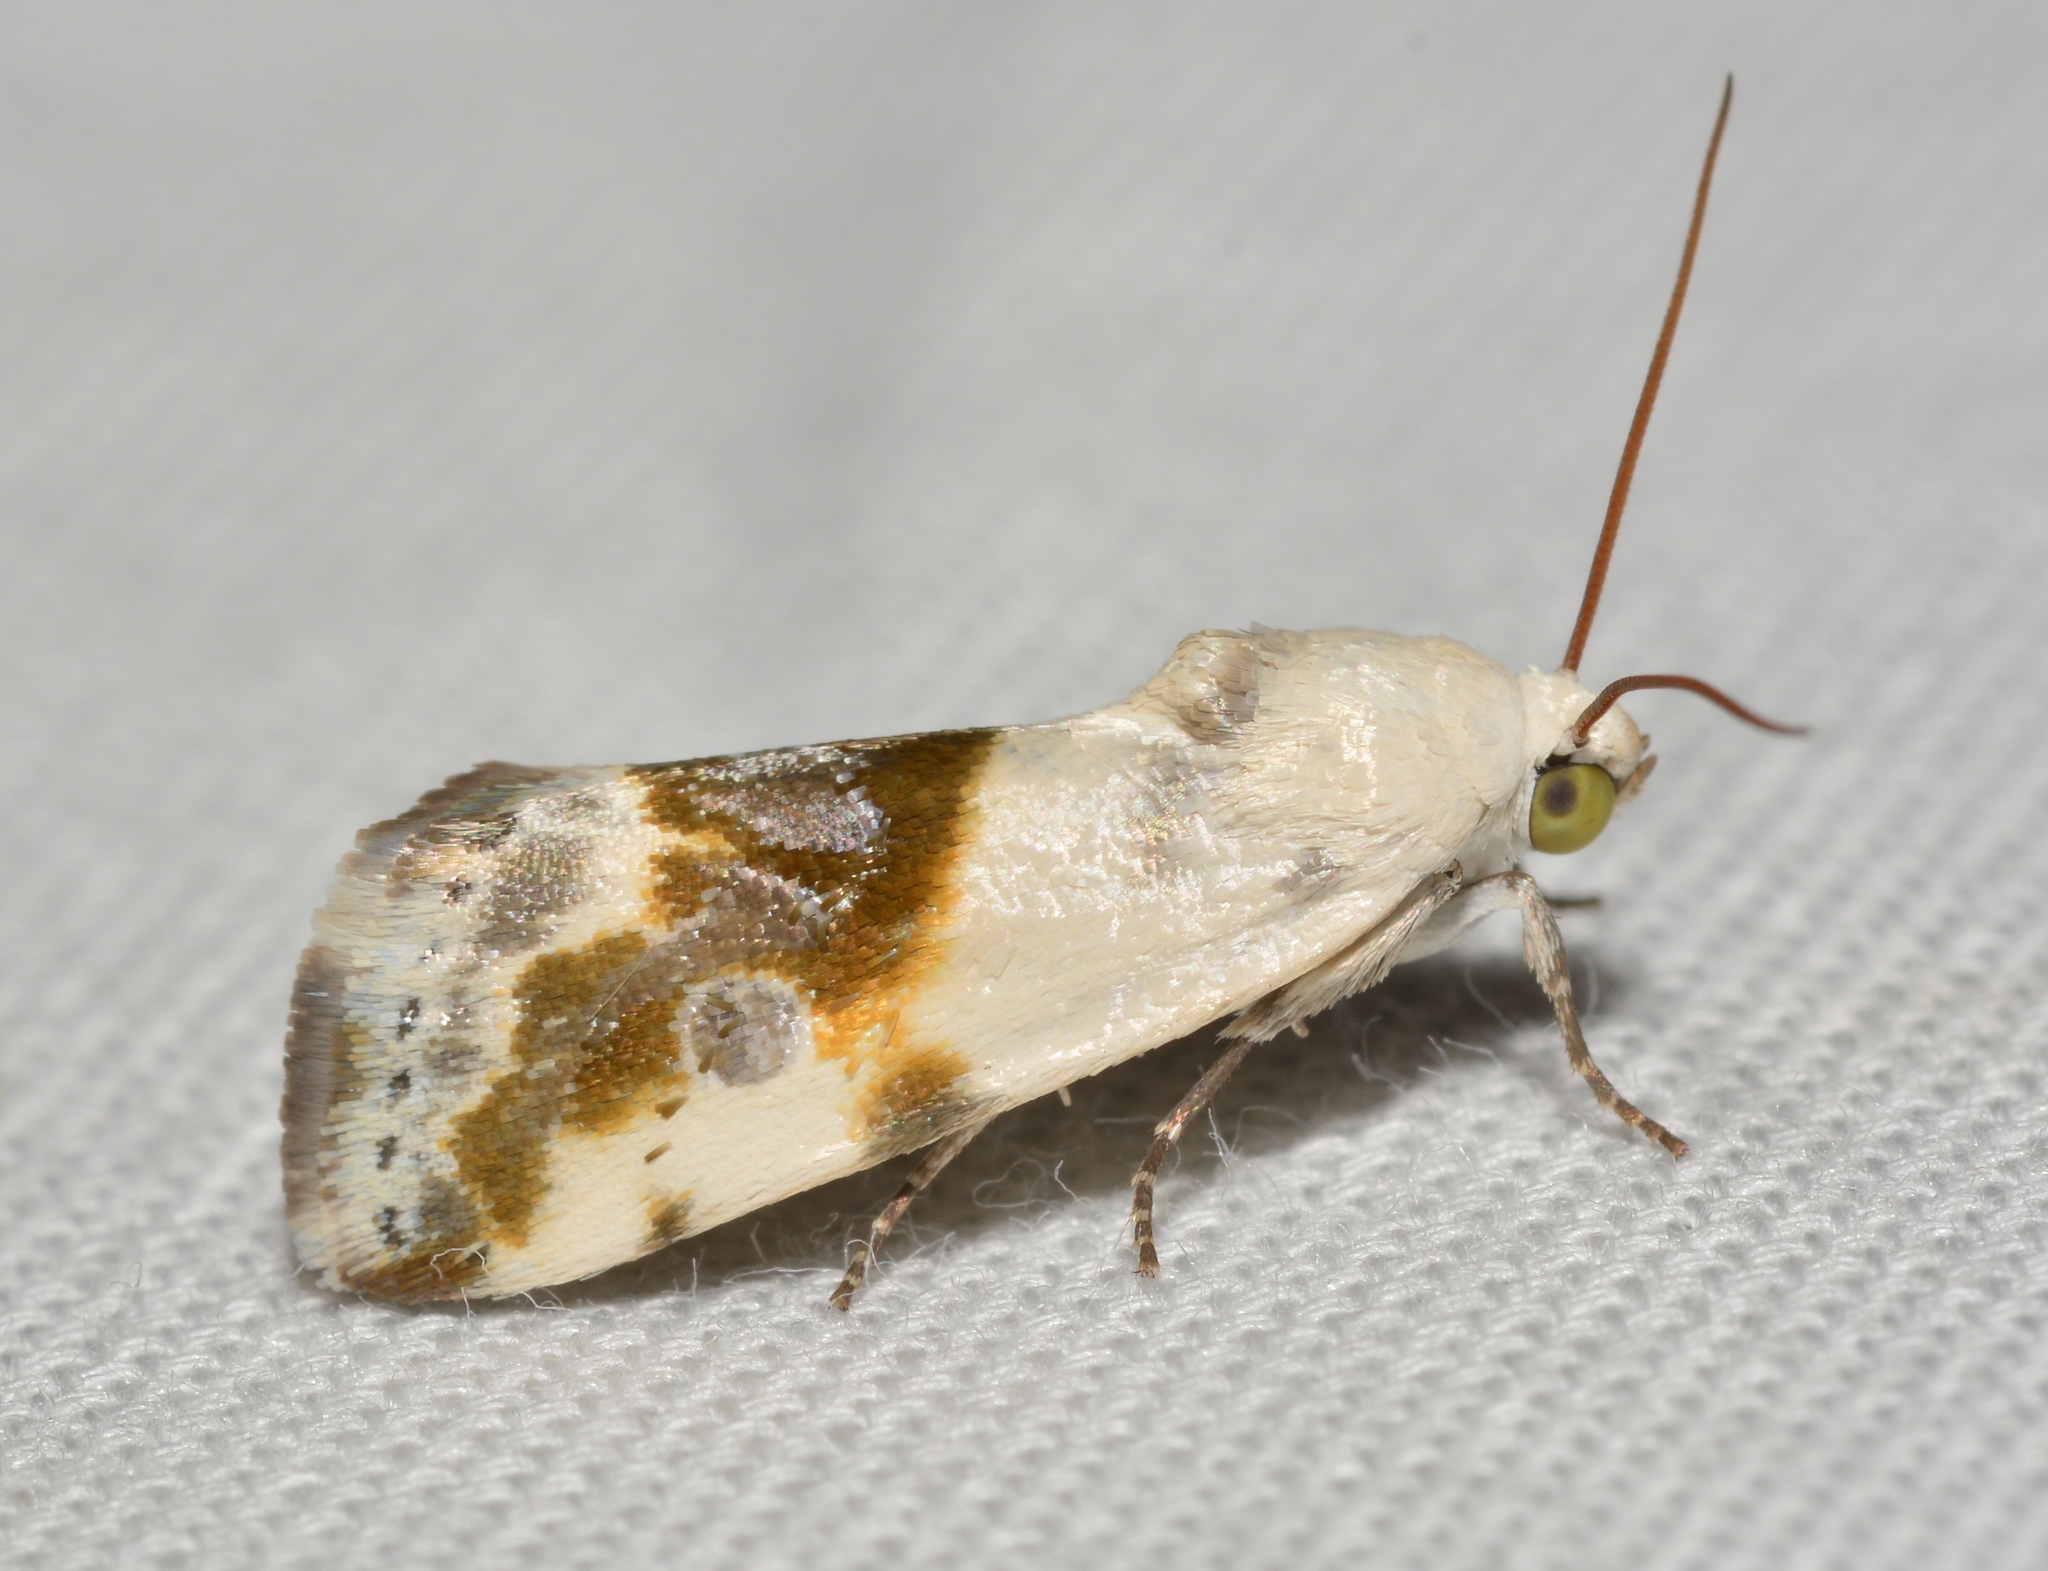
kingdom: Animalia
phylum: Arthropoda
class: Insecta
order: Lepidoptera
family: Noctuidae
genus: Acontia
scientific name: Acontia candefacta
